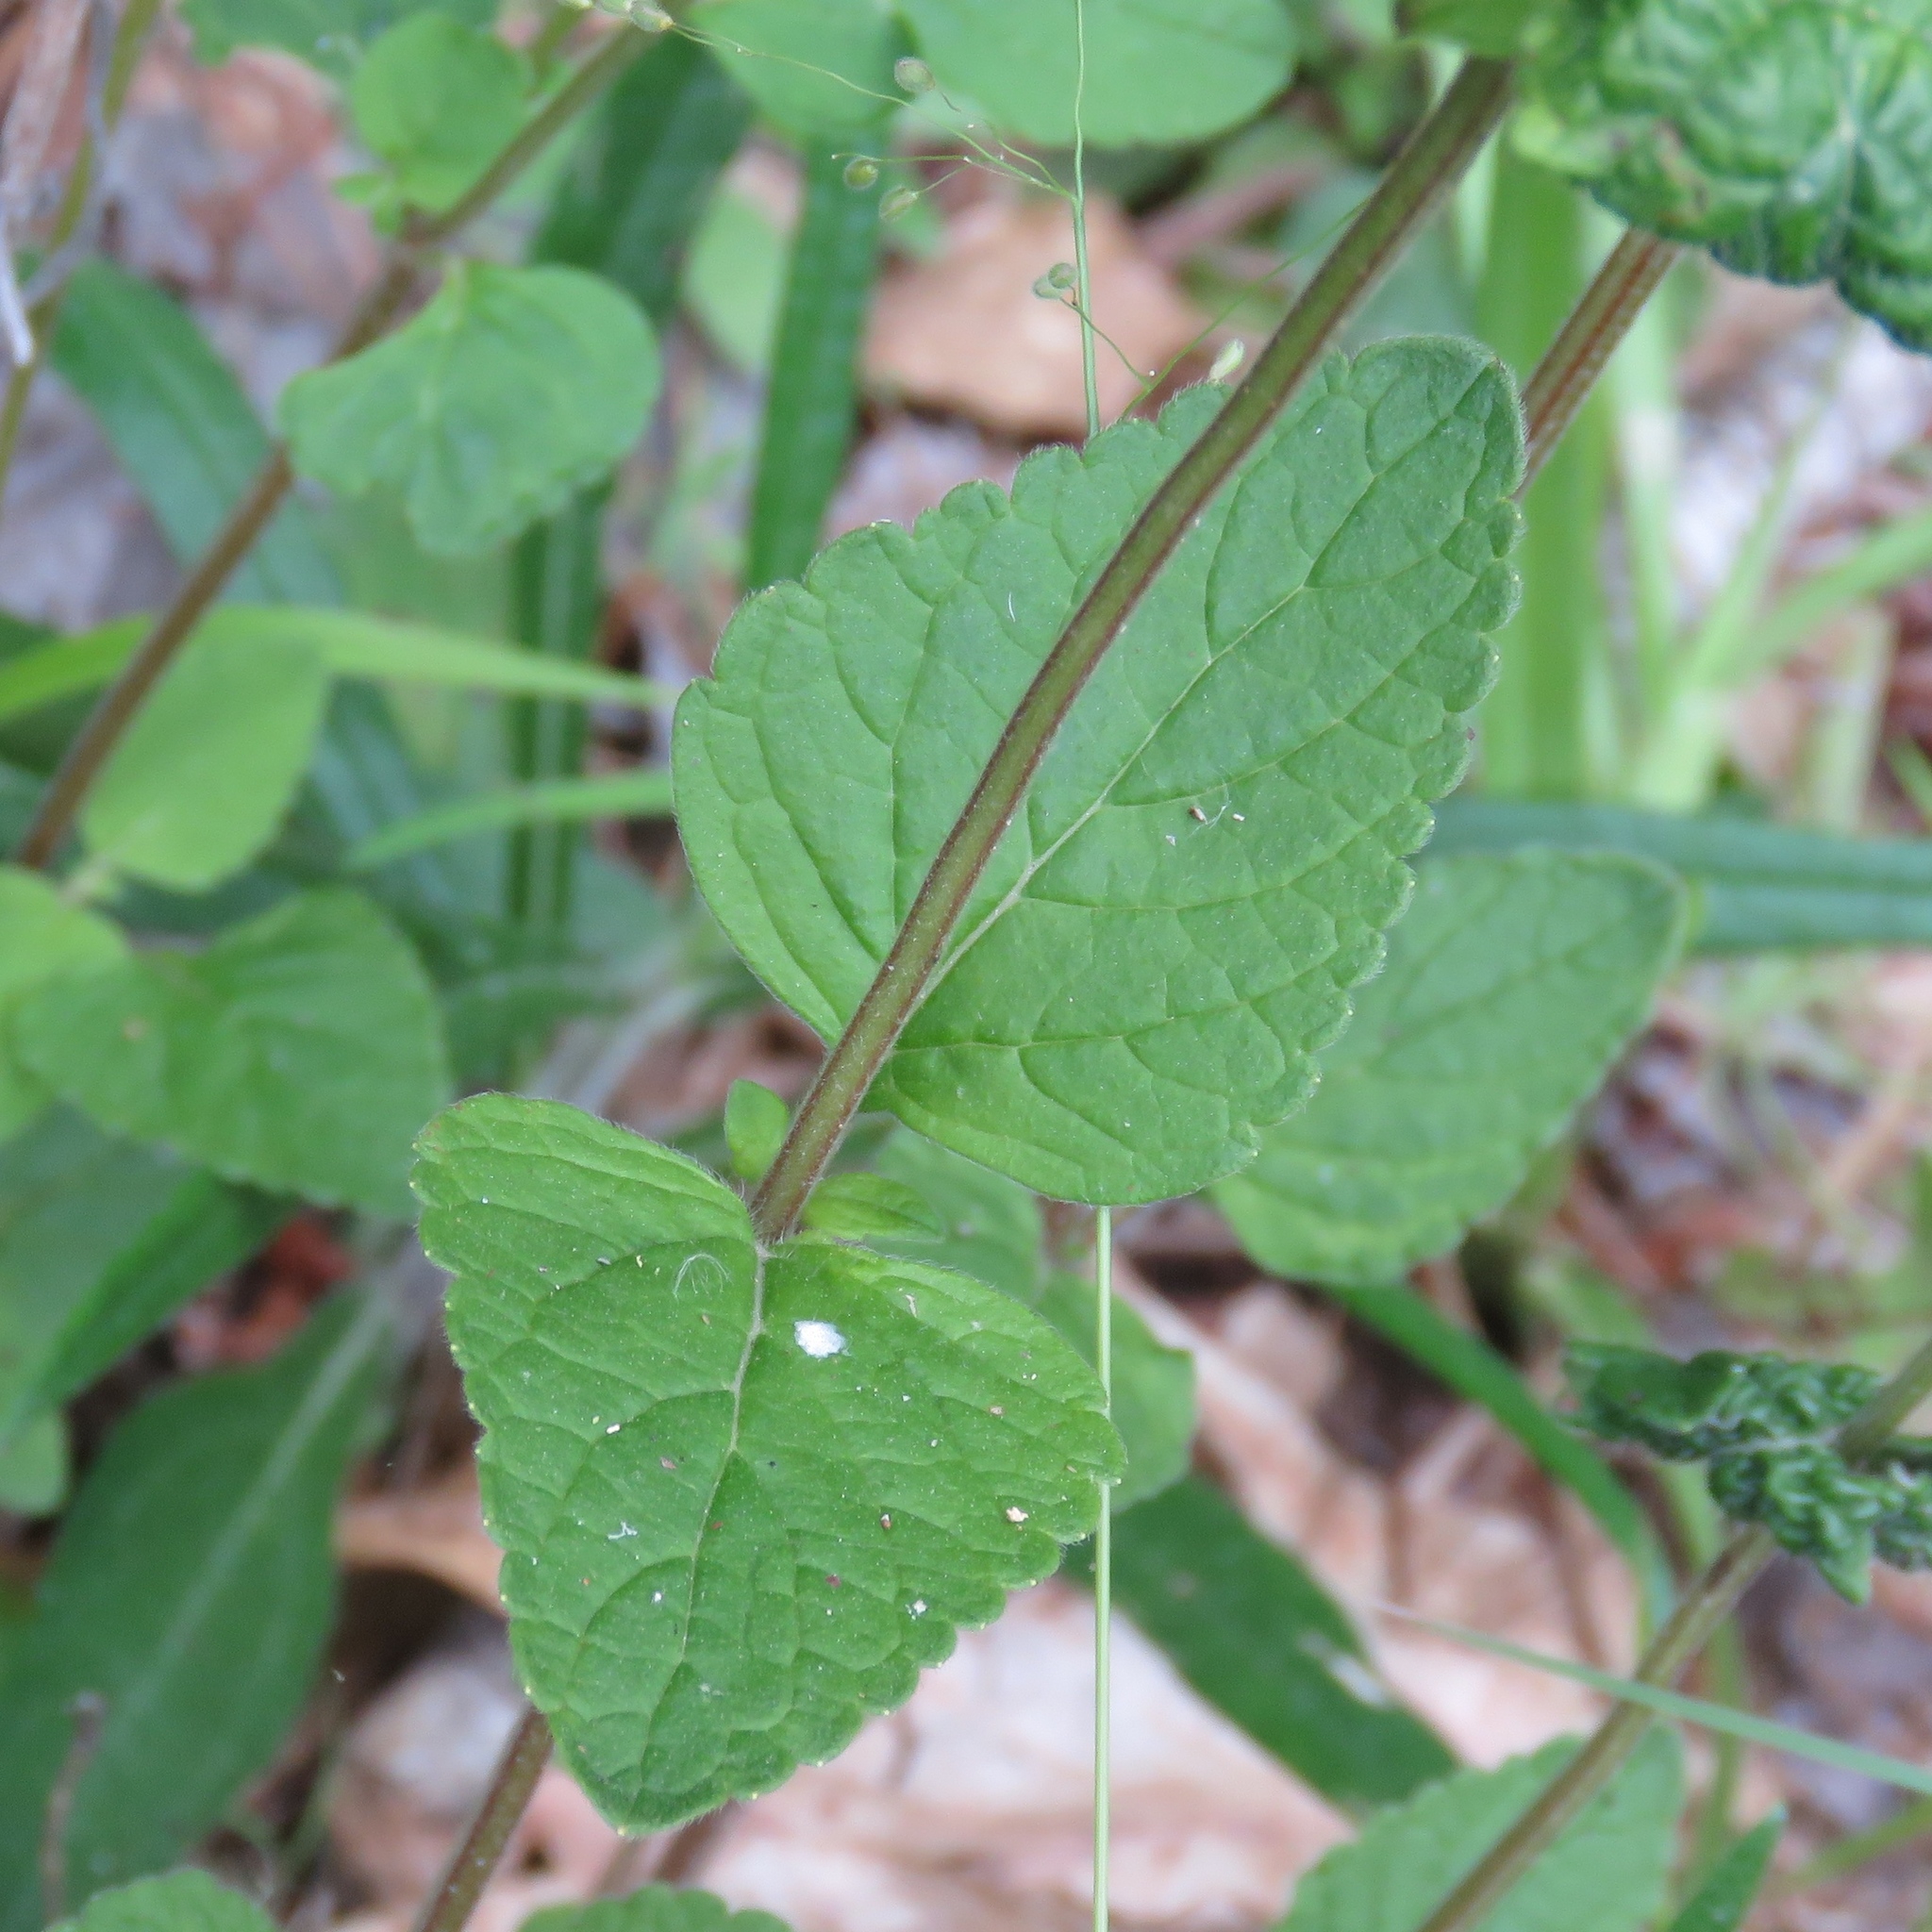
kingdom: Plantae
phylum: Tracheophyta
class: Magnoliopsida
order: Lamiales
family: Lamiaceae
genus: Scutellaria
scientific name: Scutellaria elliptica
